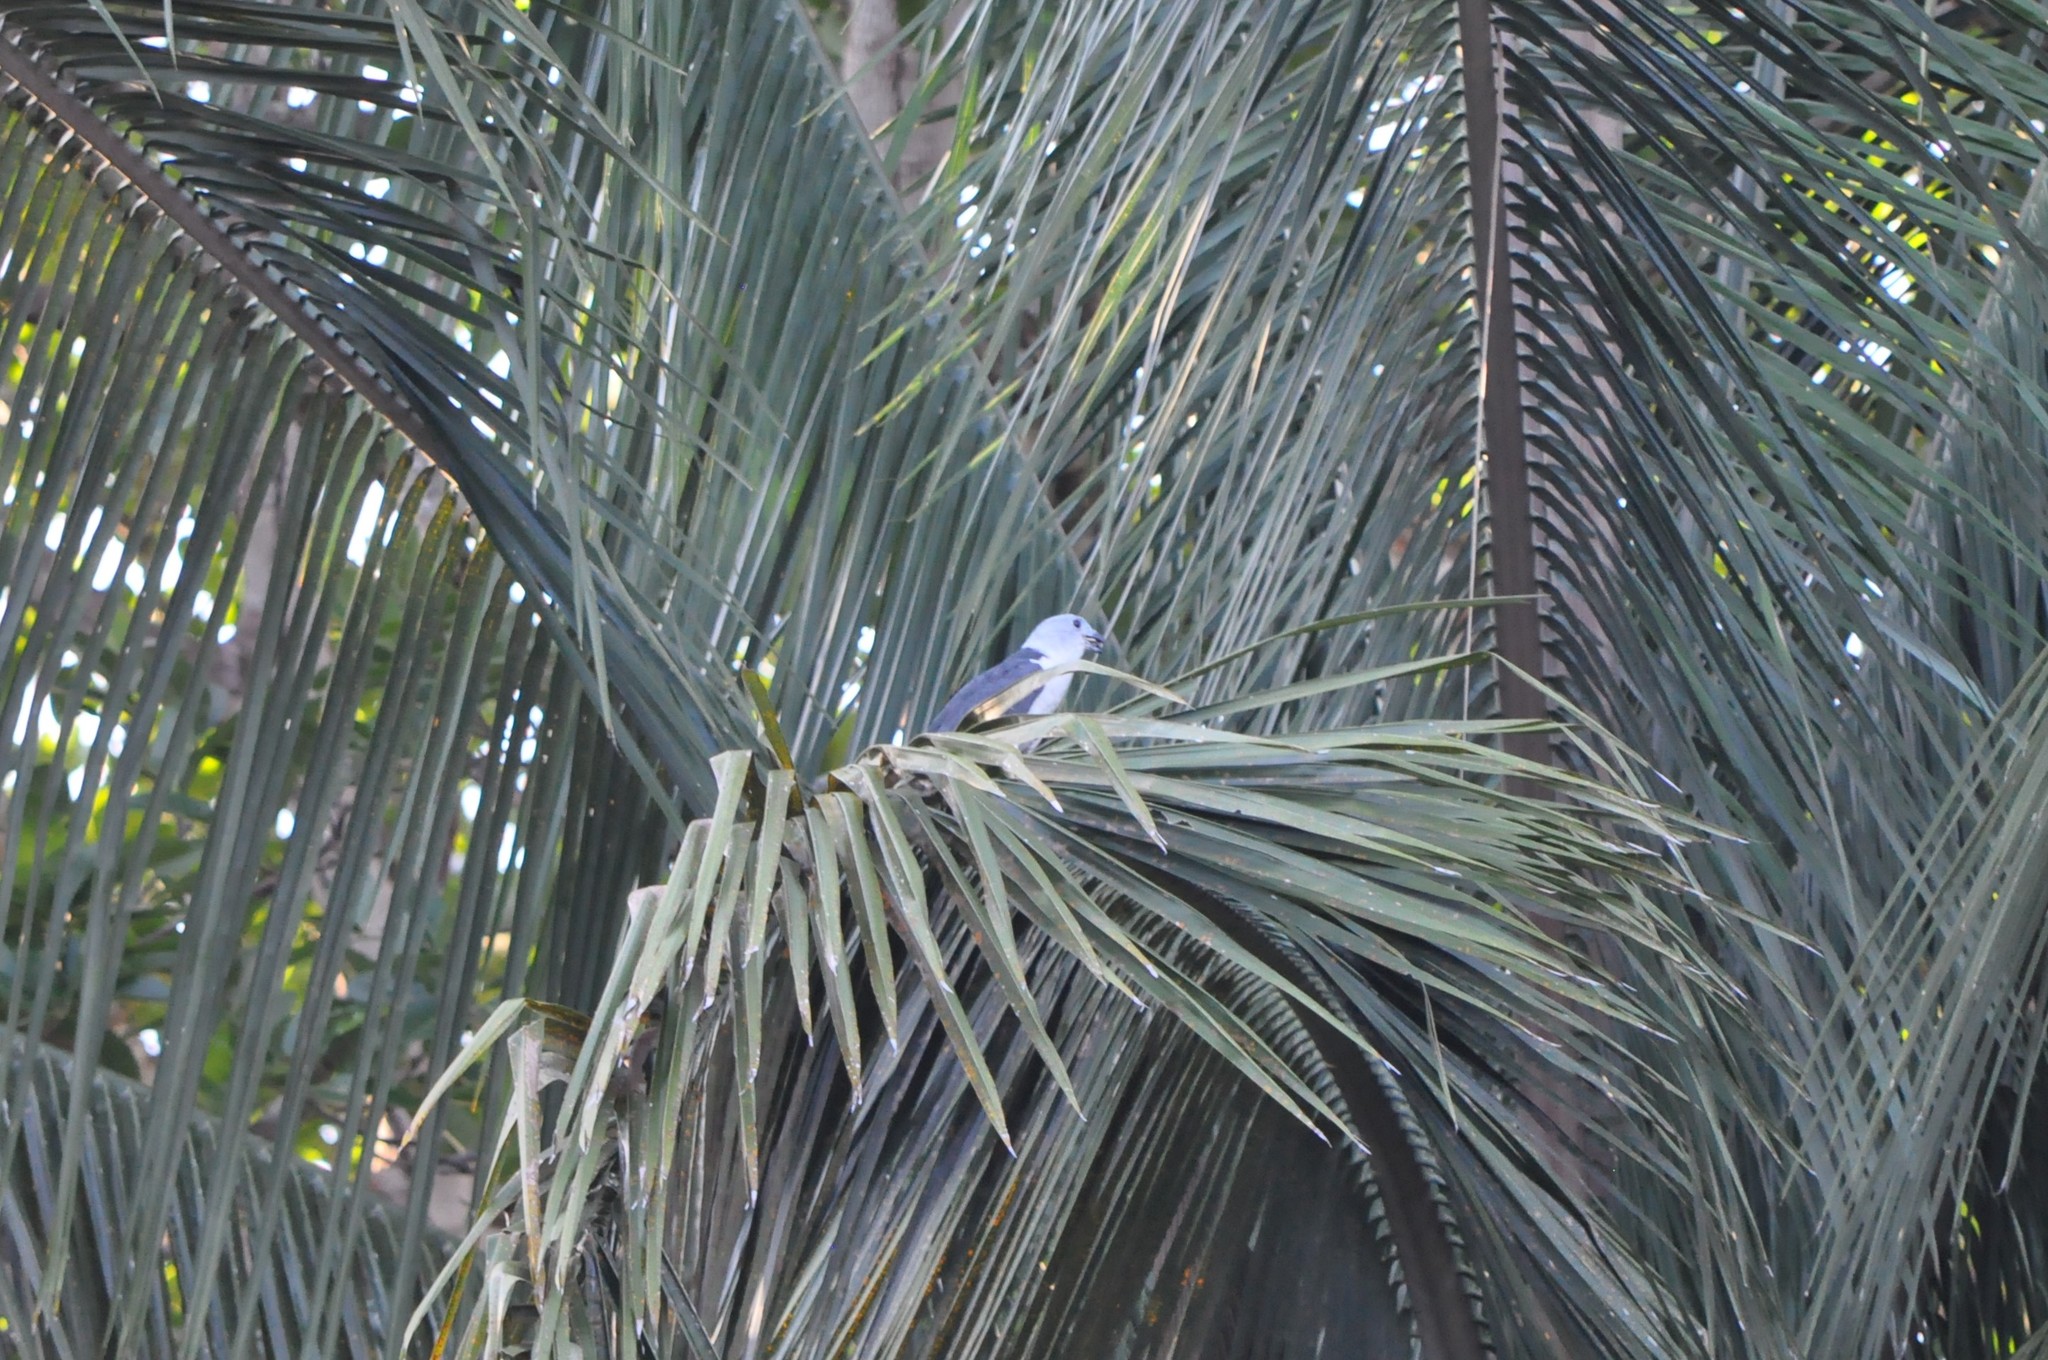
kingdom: Animalia
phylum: Chordata
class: Aves
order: Accipitriformes
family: Accipitridae
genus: Leptodon
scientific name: Leptodon cayanensis
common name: Gray-headed kite
